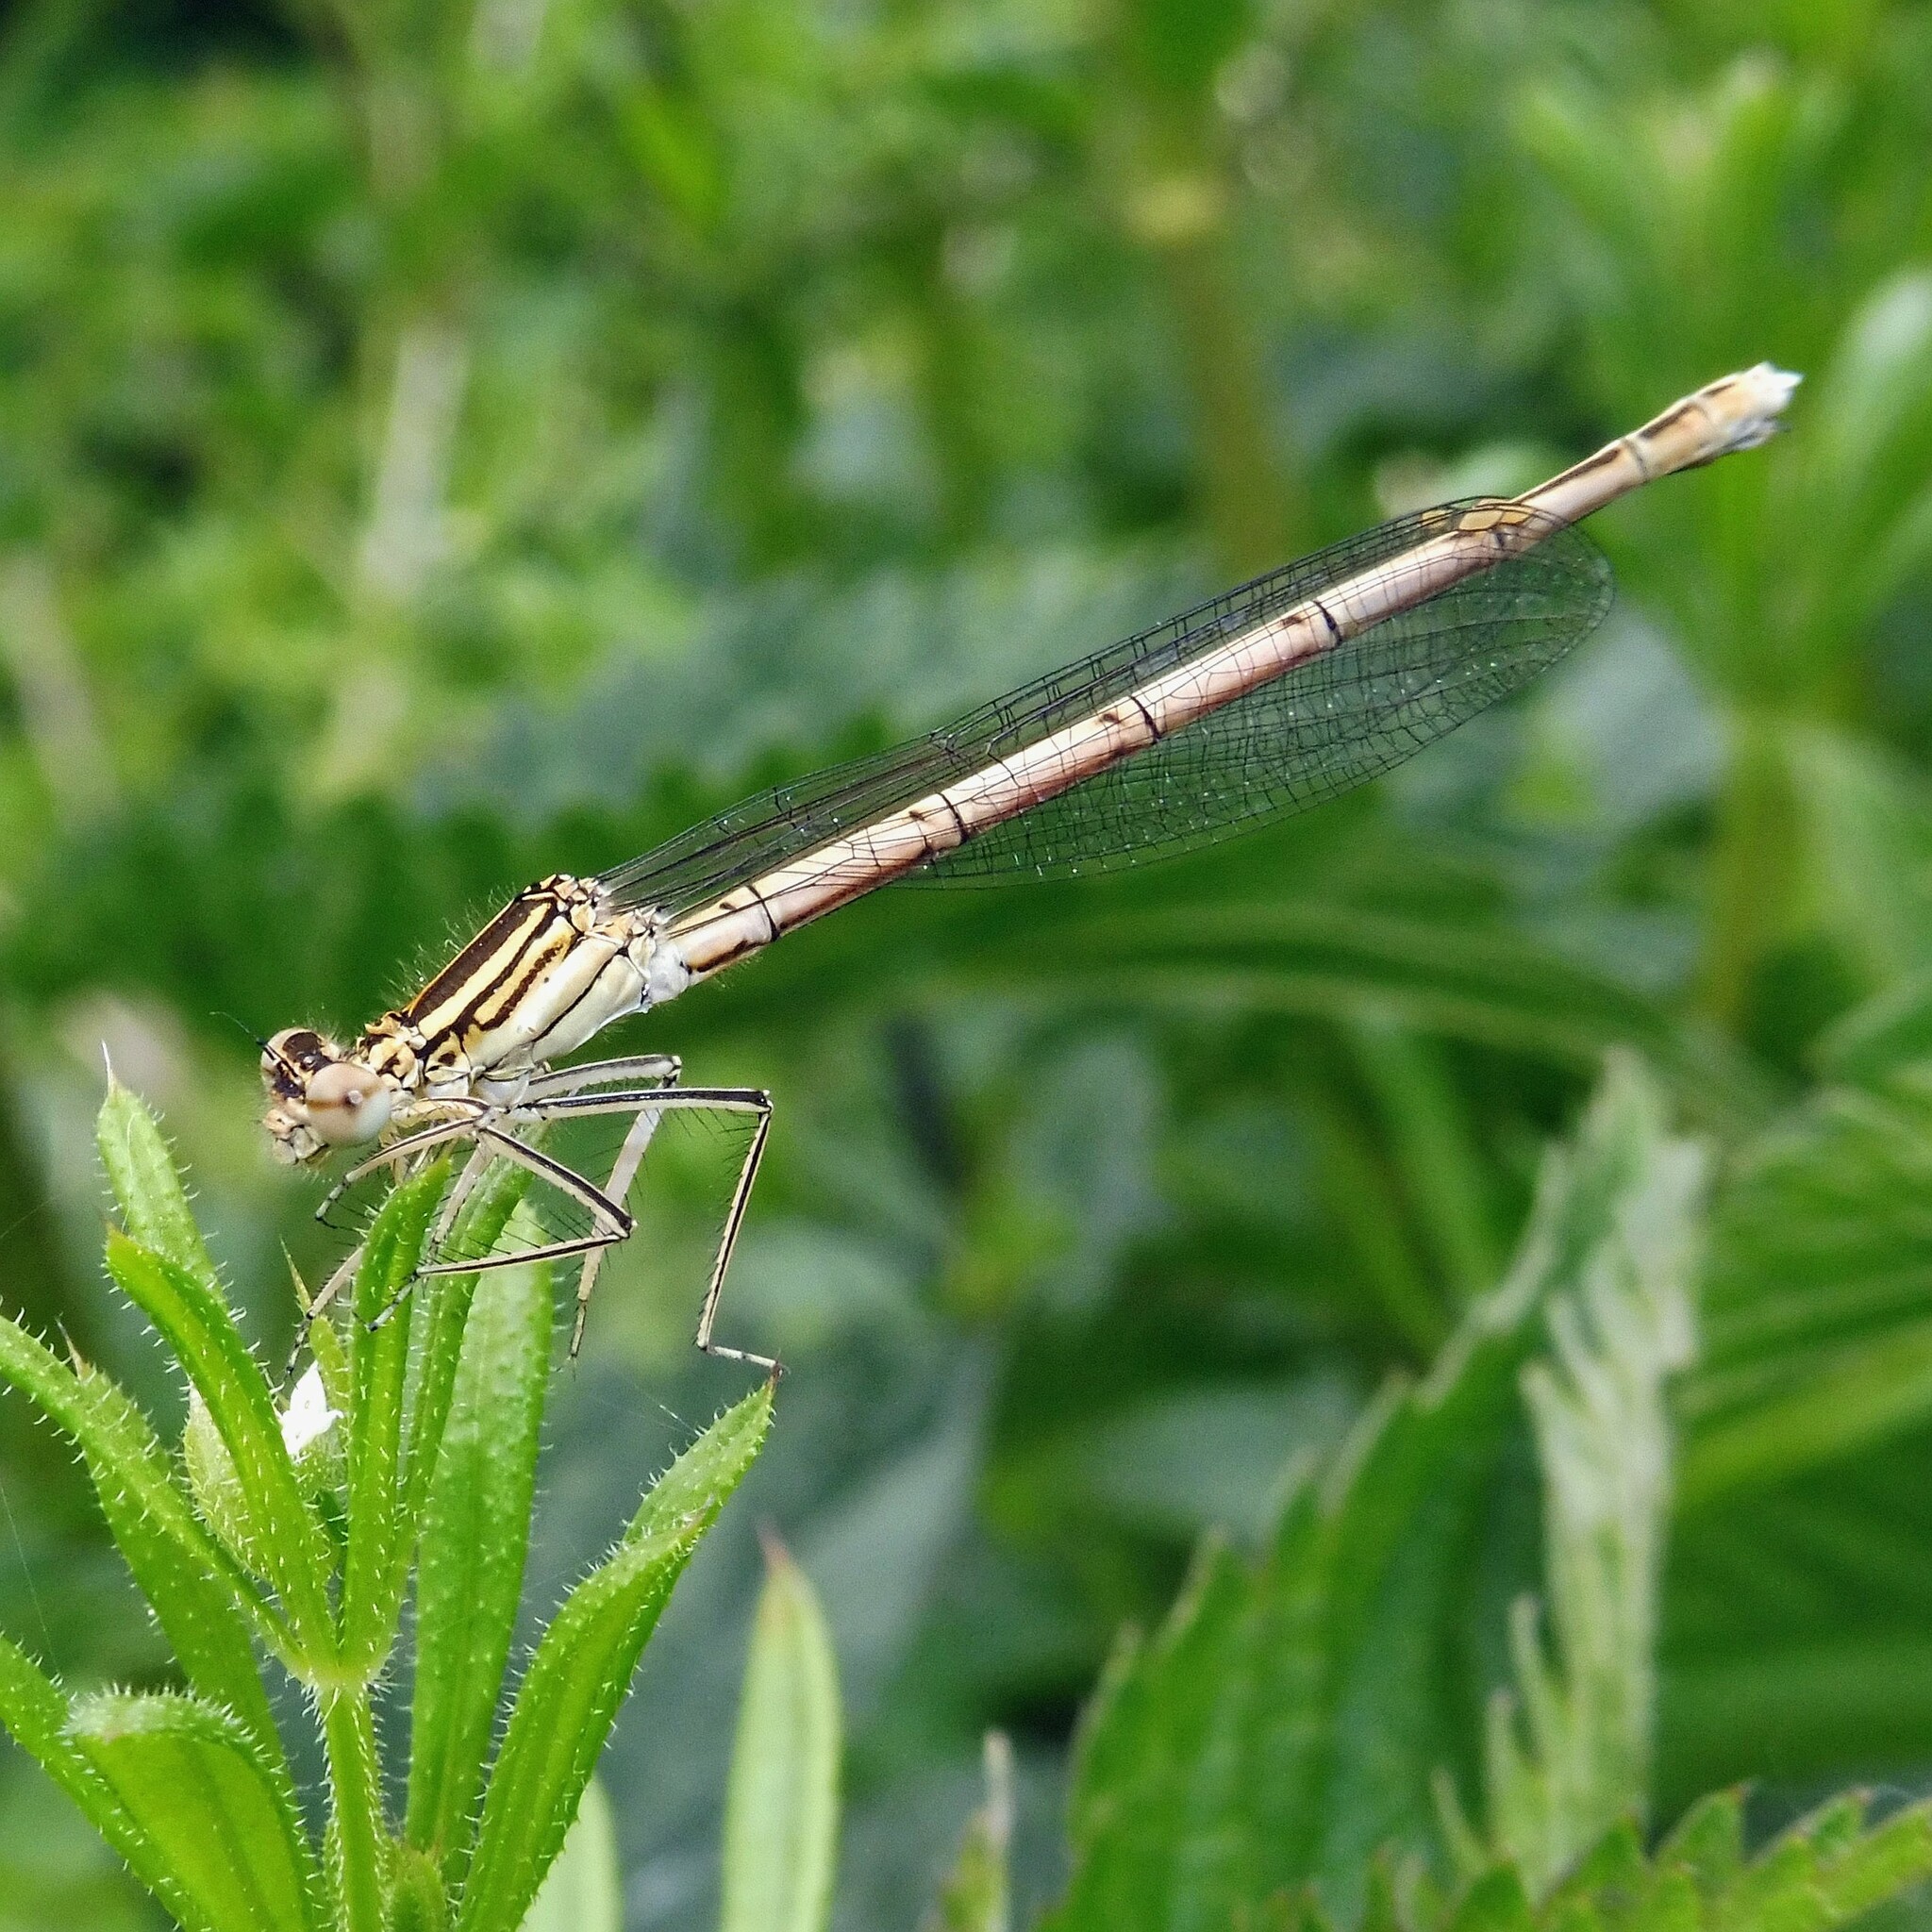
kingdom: Animalia
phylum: Arthropoda
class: Insecta
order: Odonata
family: Platycnemididae
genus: Platycnemis
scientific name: Platycnemis pennipes
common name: White-legged damselfly
